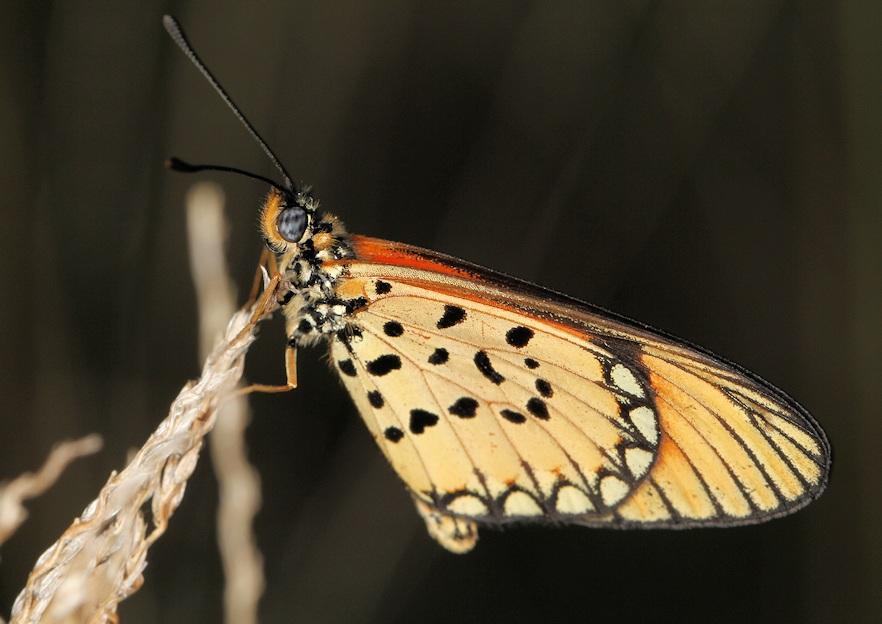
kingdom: Animalia
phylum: Arthropoda
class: Insecta
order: Lepidoptera
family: Nymphalidae
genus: Acraea
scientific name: Acraea Telchinia serena
